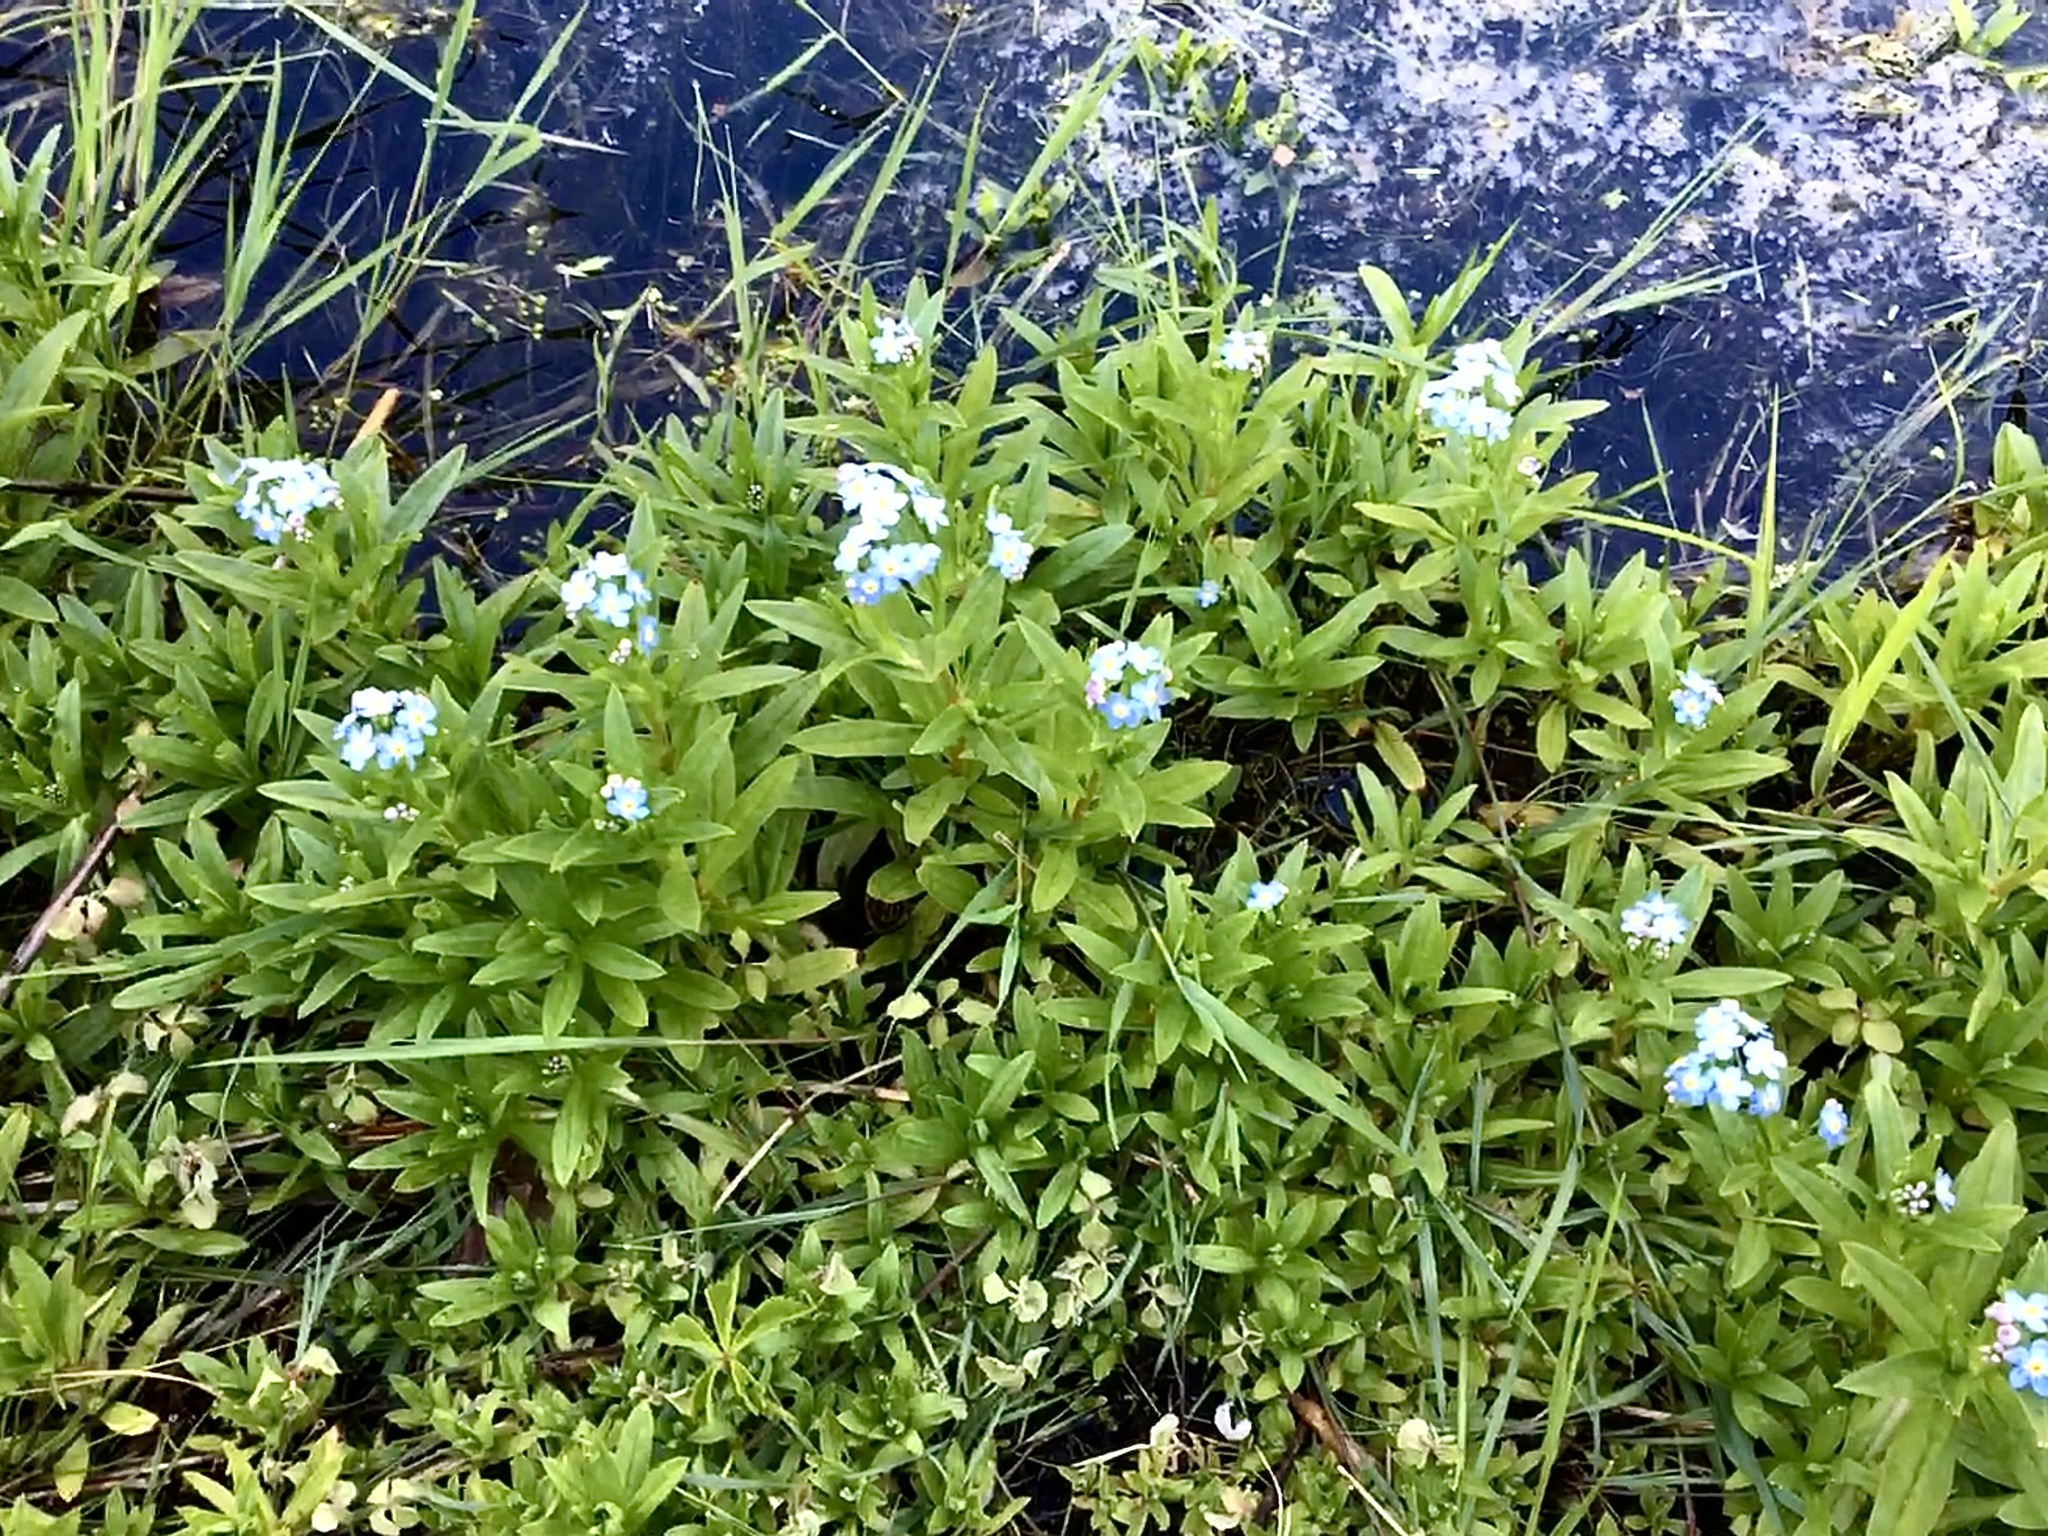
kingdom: Plantae
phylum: Tracheophyta
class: Magnoliopsida
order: Boraginales
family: Boraginaceae
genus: Myosotis
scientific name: Myosotis sylvatica
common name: Wood forget-me-not
